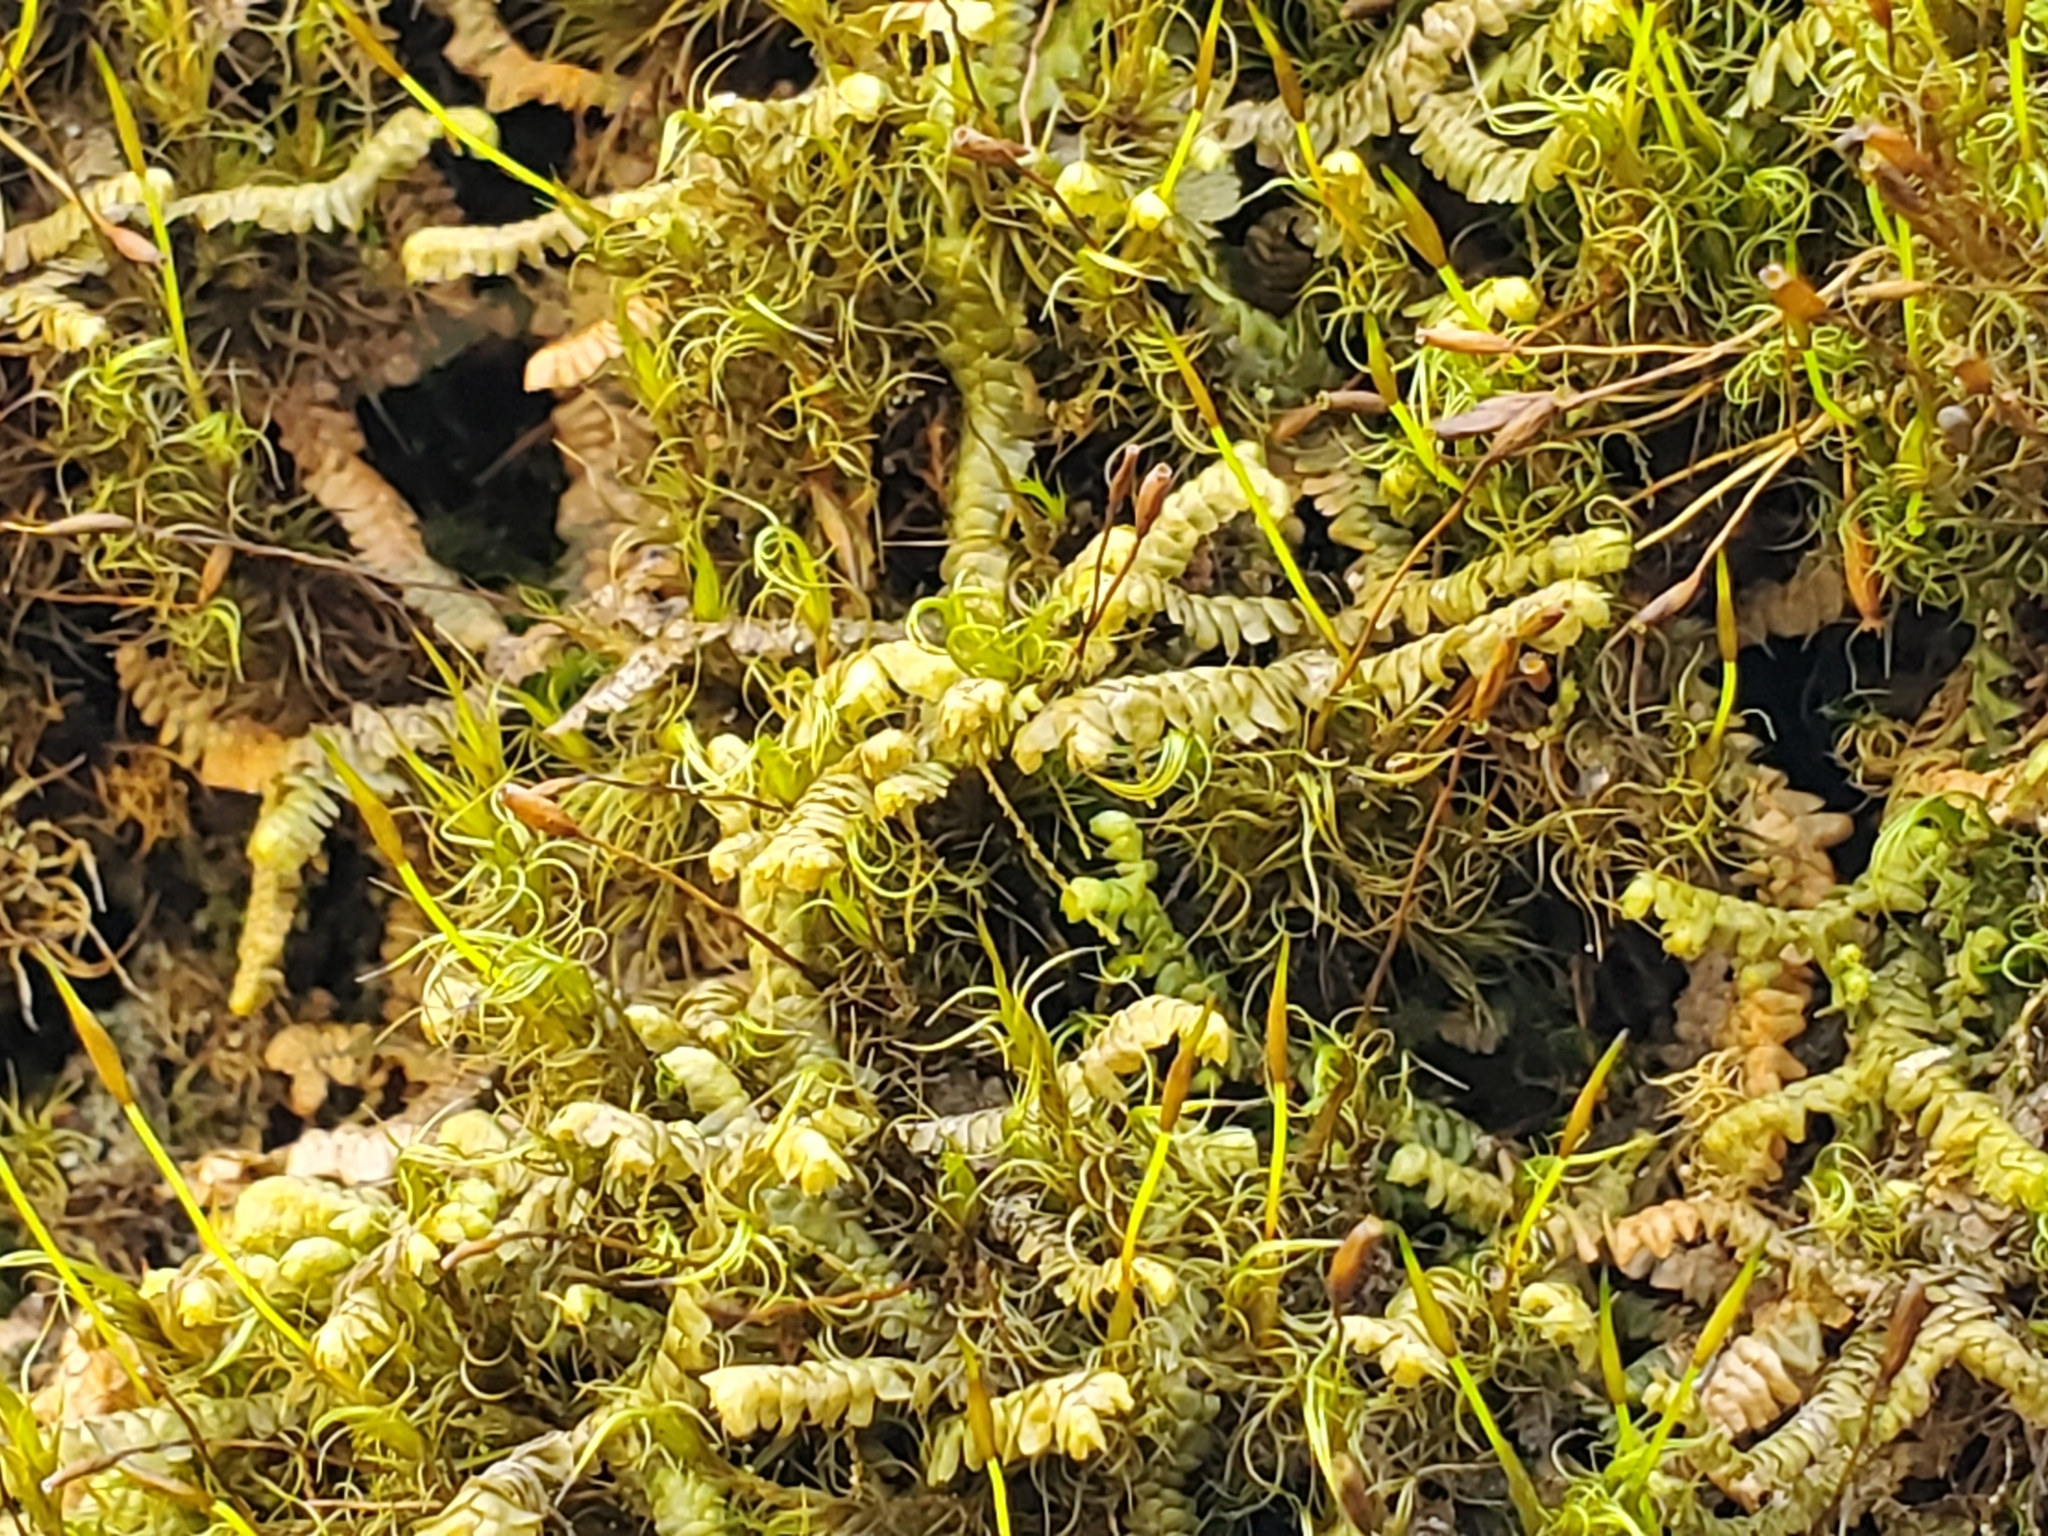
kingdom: Plantae
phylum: Marchantiophyta
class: Jungermanniopsida
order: Jungermanniales
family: Lepidoziaceae
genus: Bazzania
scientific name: Bazzania trilobata
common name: Three-lobed whipwort
